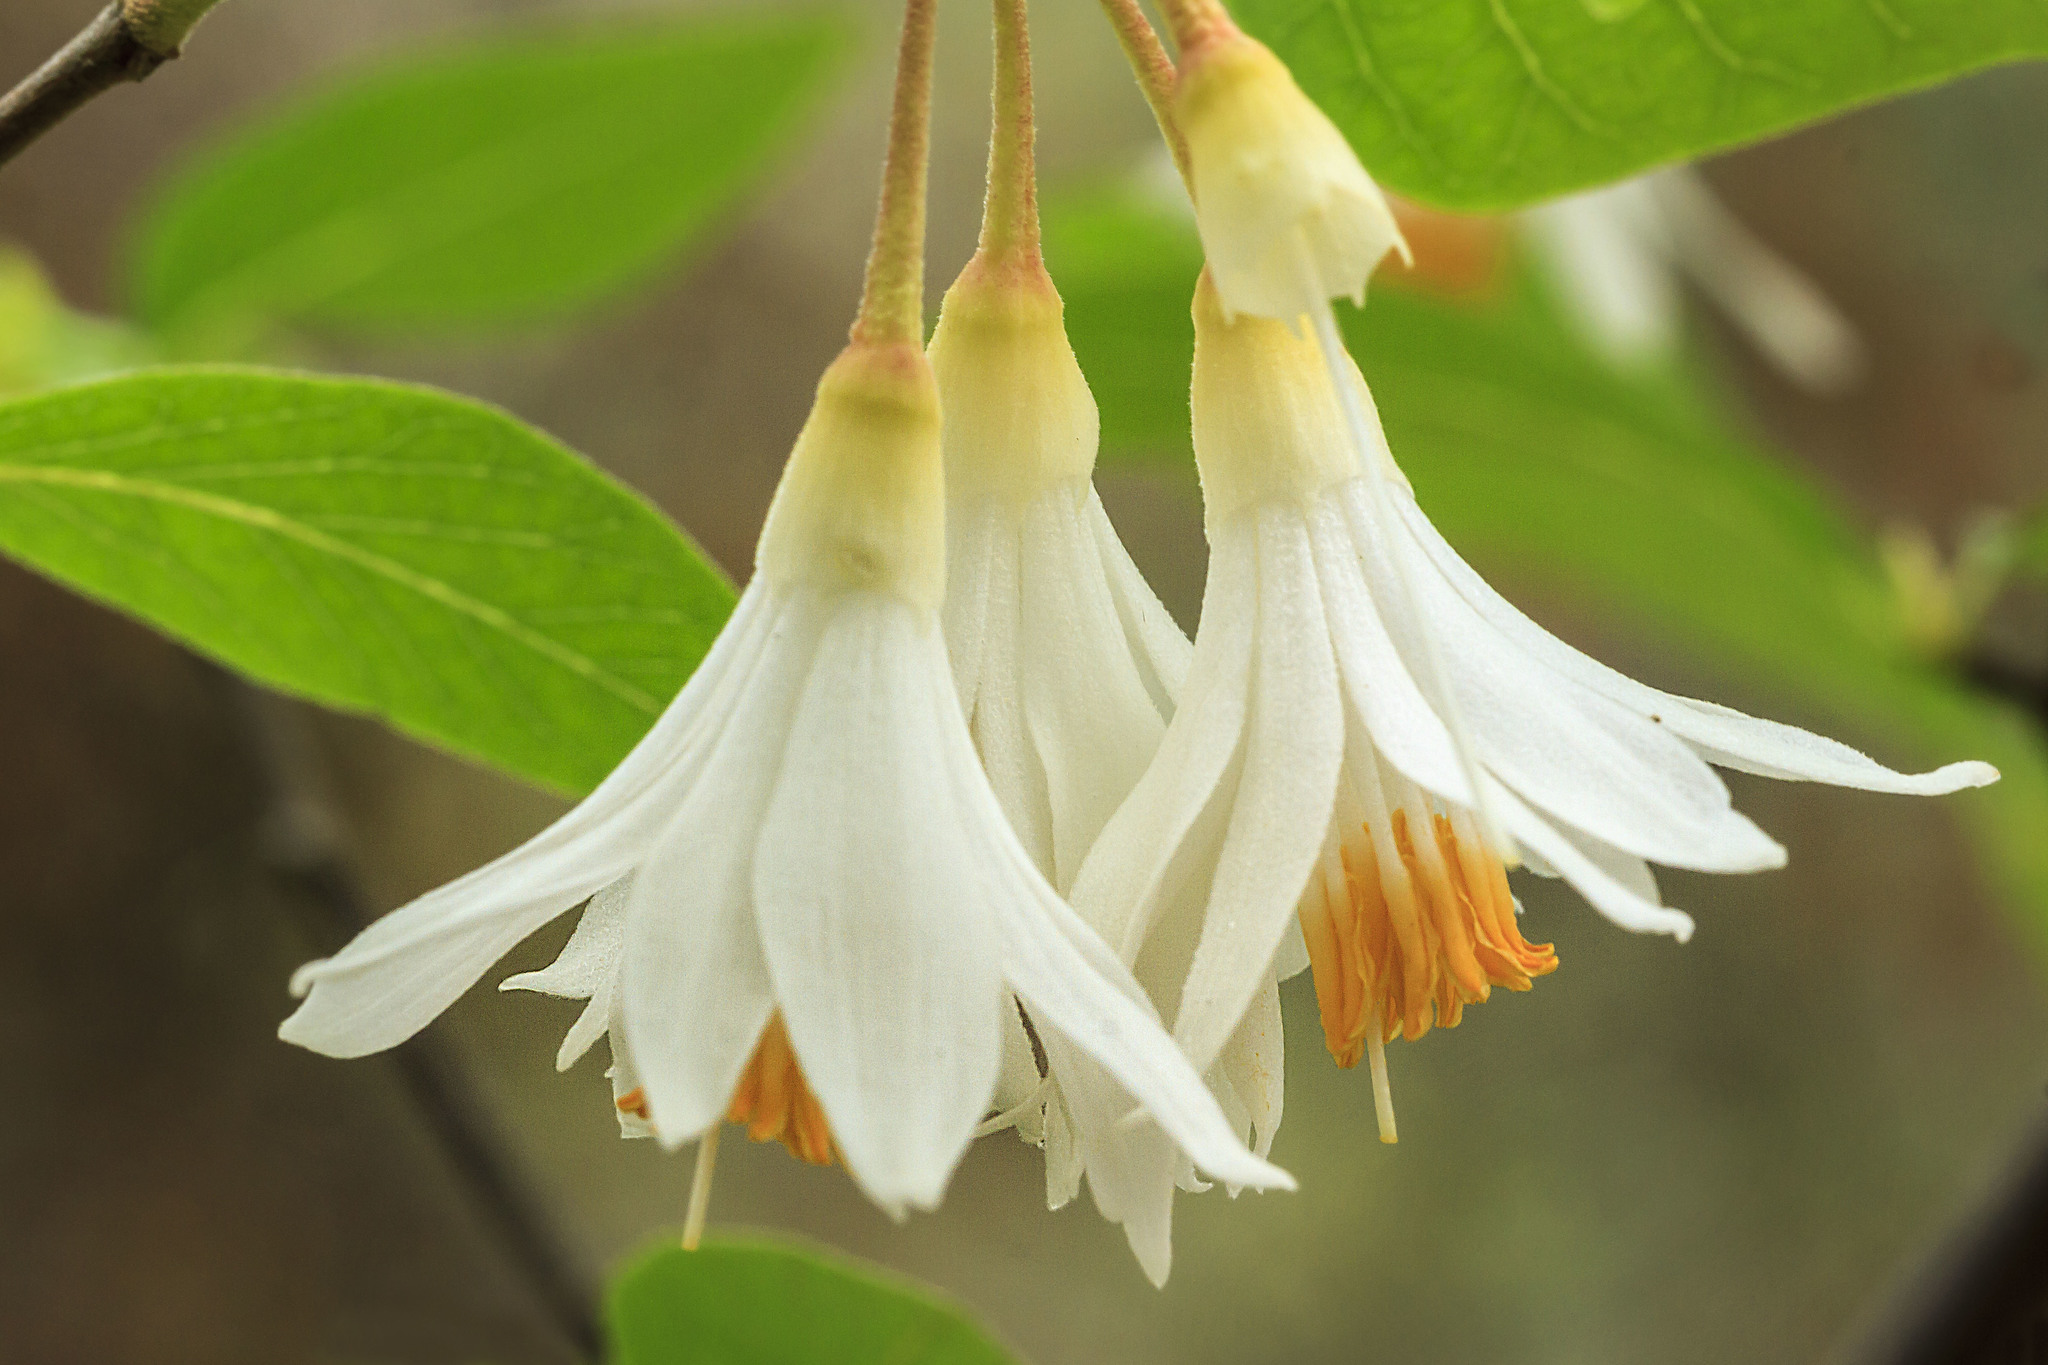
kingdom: Plantae
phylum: Tracheophyta
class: Magnoliopsida
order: Ericales
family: Styracaceae
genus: Styrax
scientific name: Styrax redivivus
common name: California styrax
